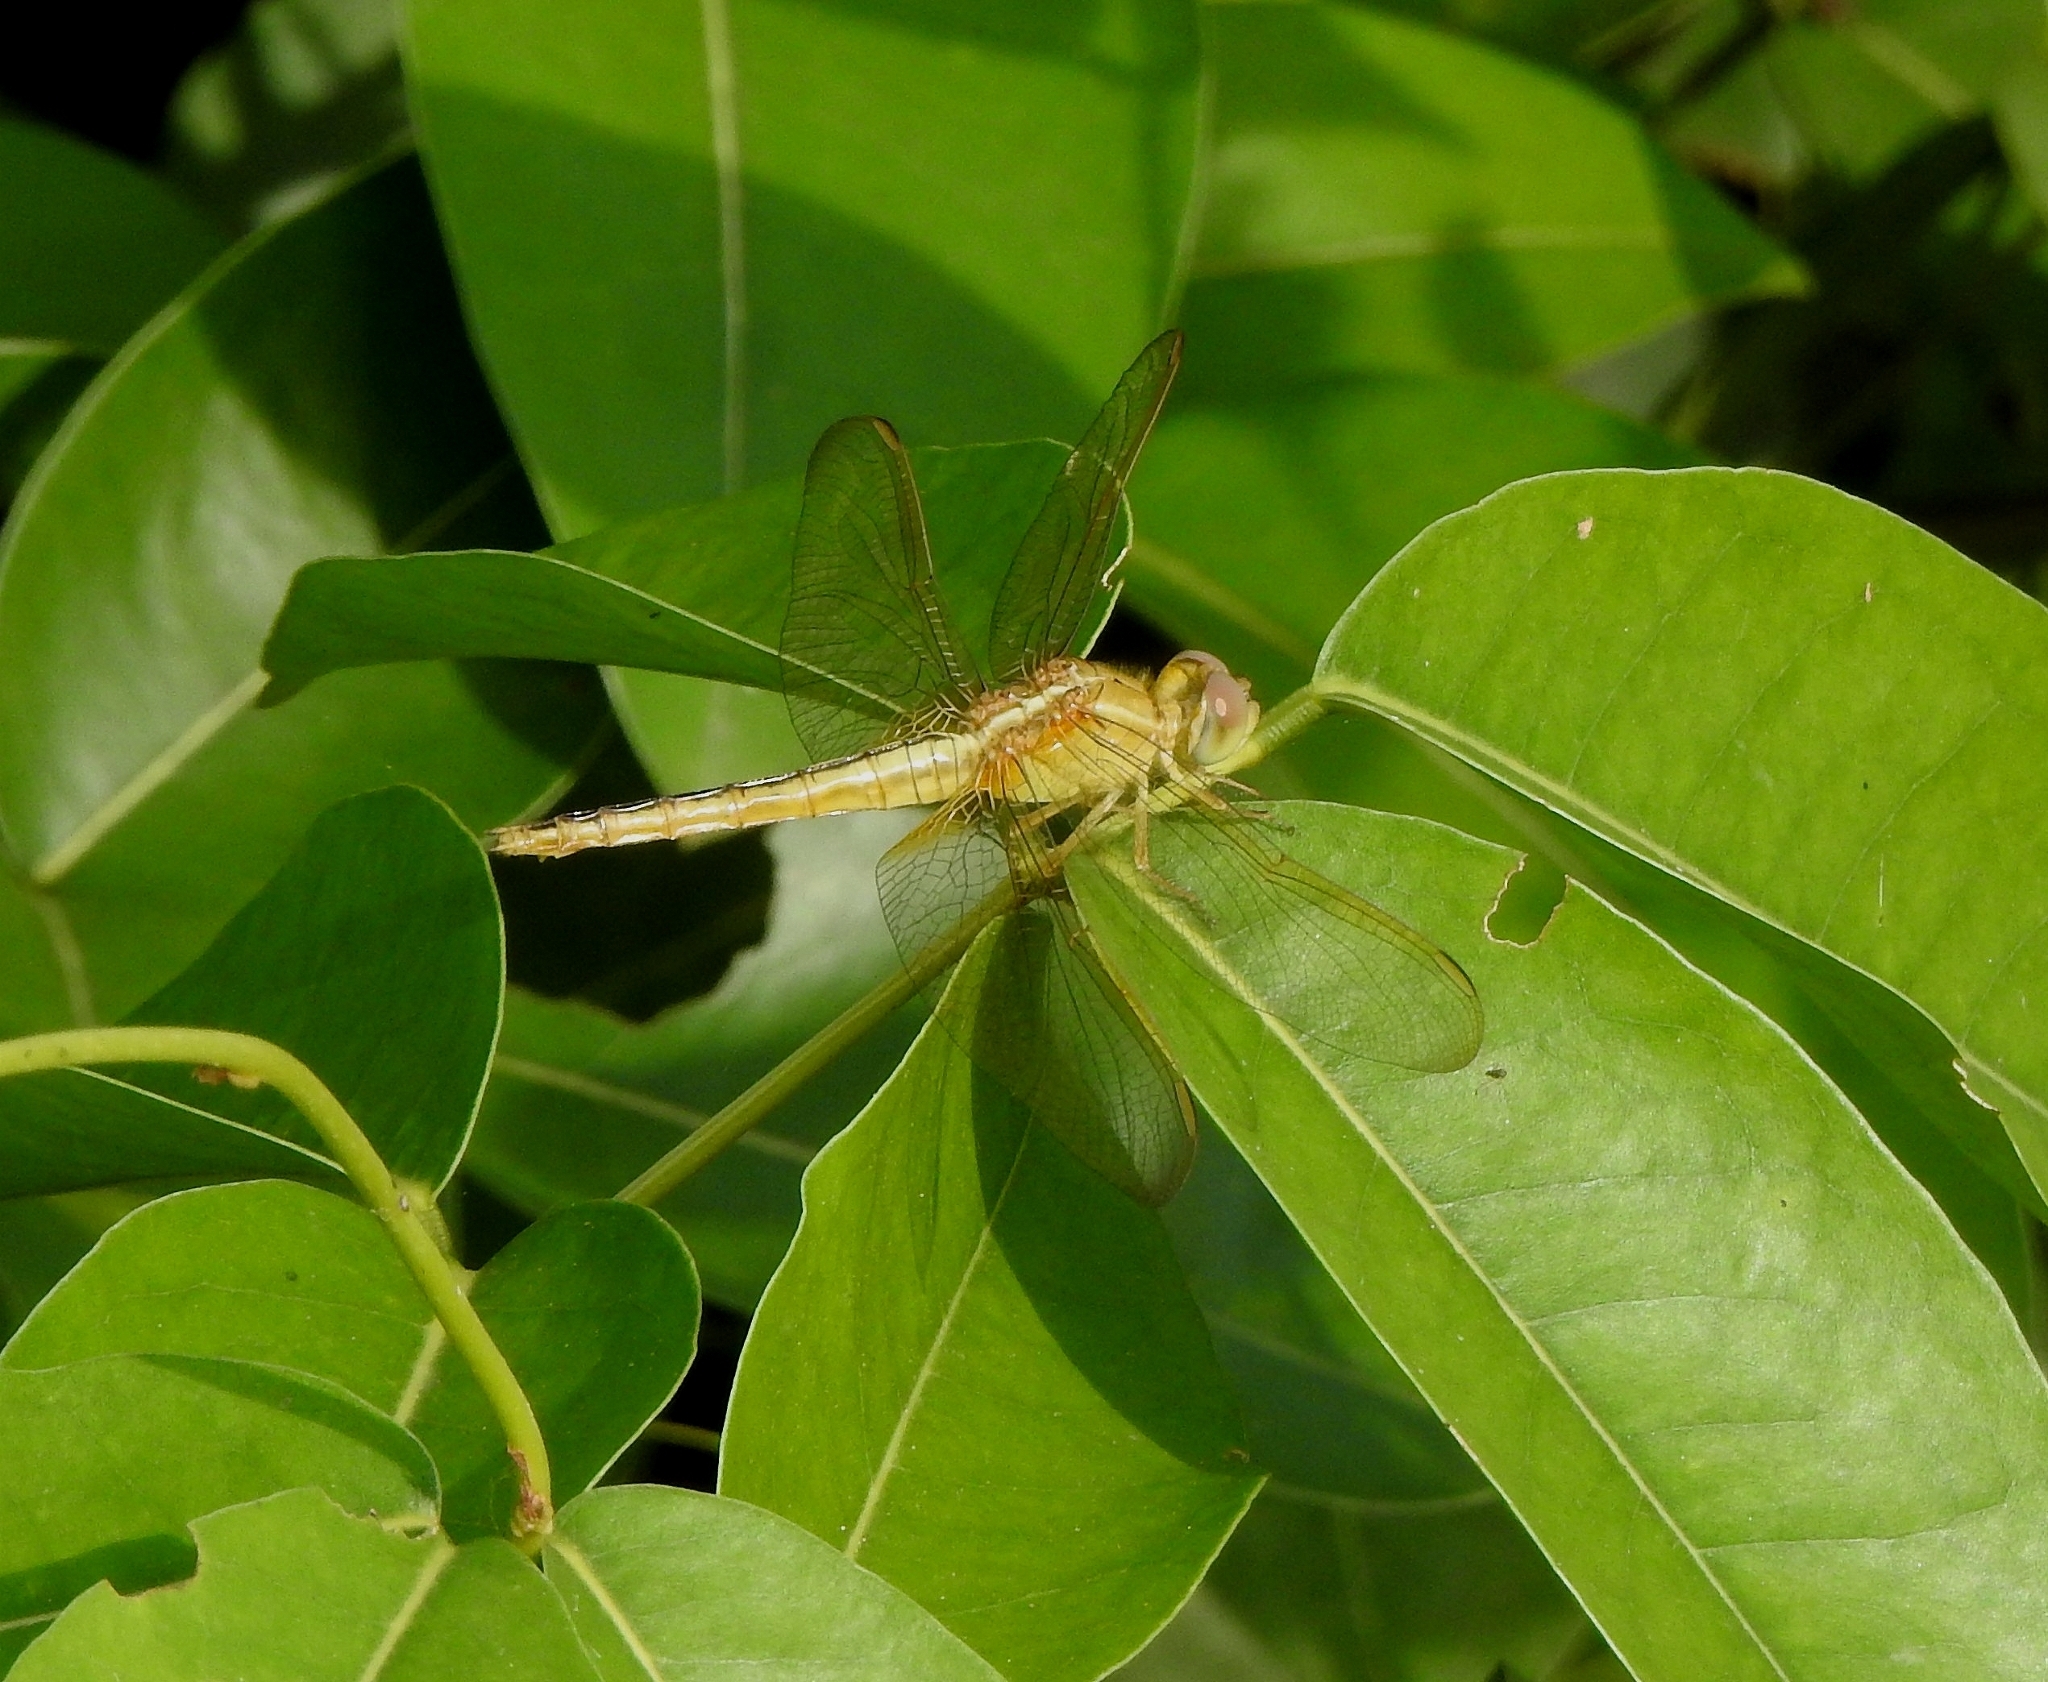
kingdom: Animalia
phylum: Arthropoda
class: Insecta
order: Odonata
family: Libellulidae
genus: Crocothemis
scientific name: Crocothemis servilia
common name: Scarlet skimmer
